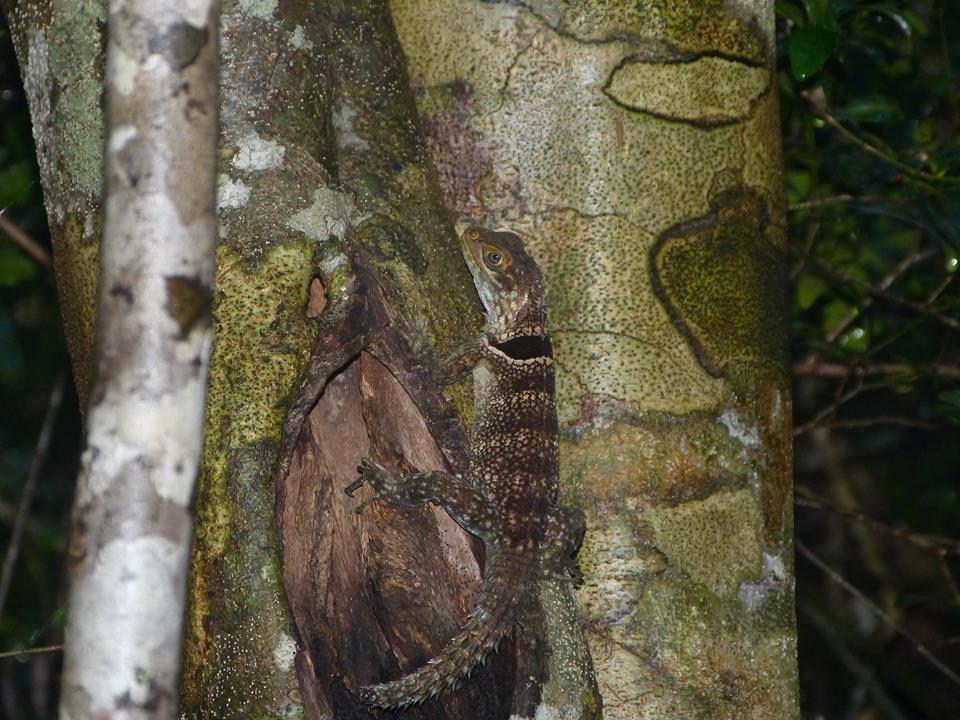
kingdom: Animalia
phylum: Chordata
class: Squamata
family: Opluridae
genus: Oplurus
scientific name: Oplurus cuvieri
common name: Cuvier's madagascar swift
